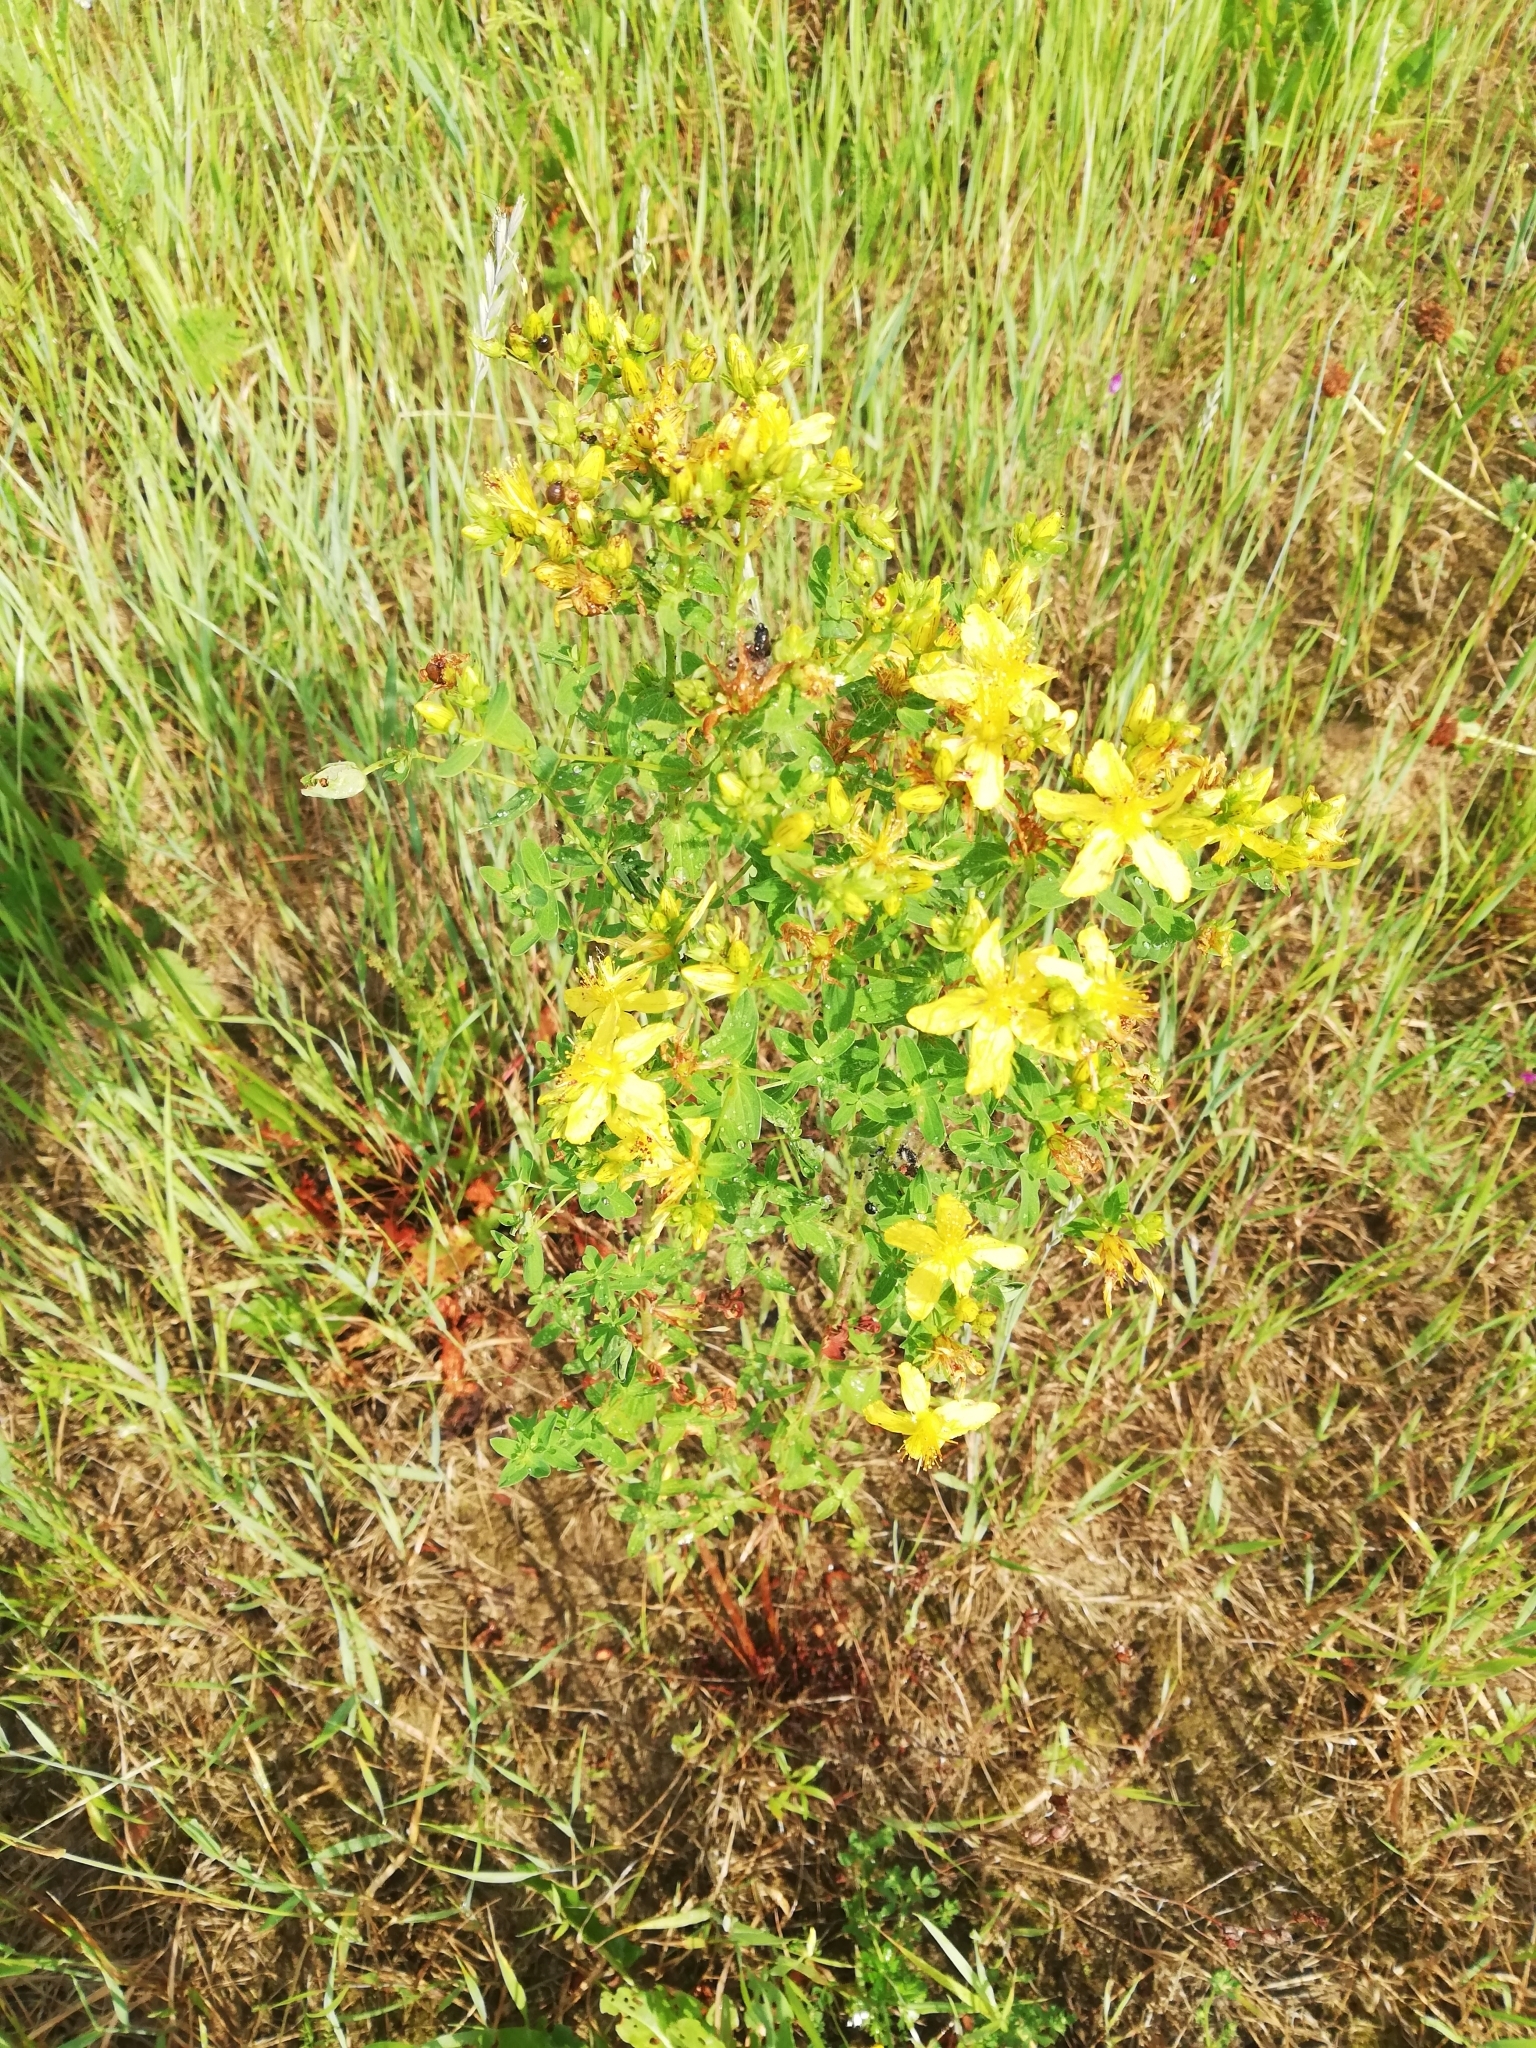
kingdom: Plantae
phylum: Tracheophyta
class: Magnoliopsida
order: Malpighiales
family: Hypericaceae
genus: Hypericum
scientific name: Hypericum perforatum
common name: Common st. johnswort
